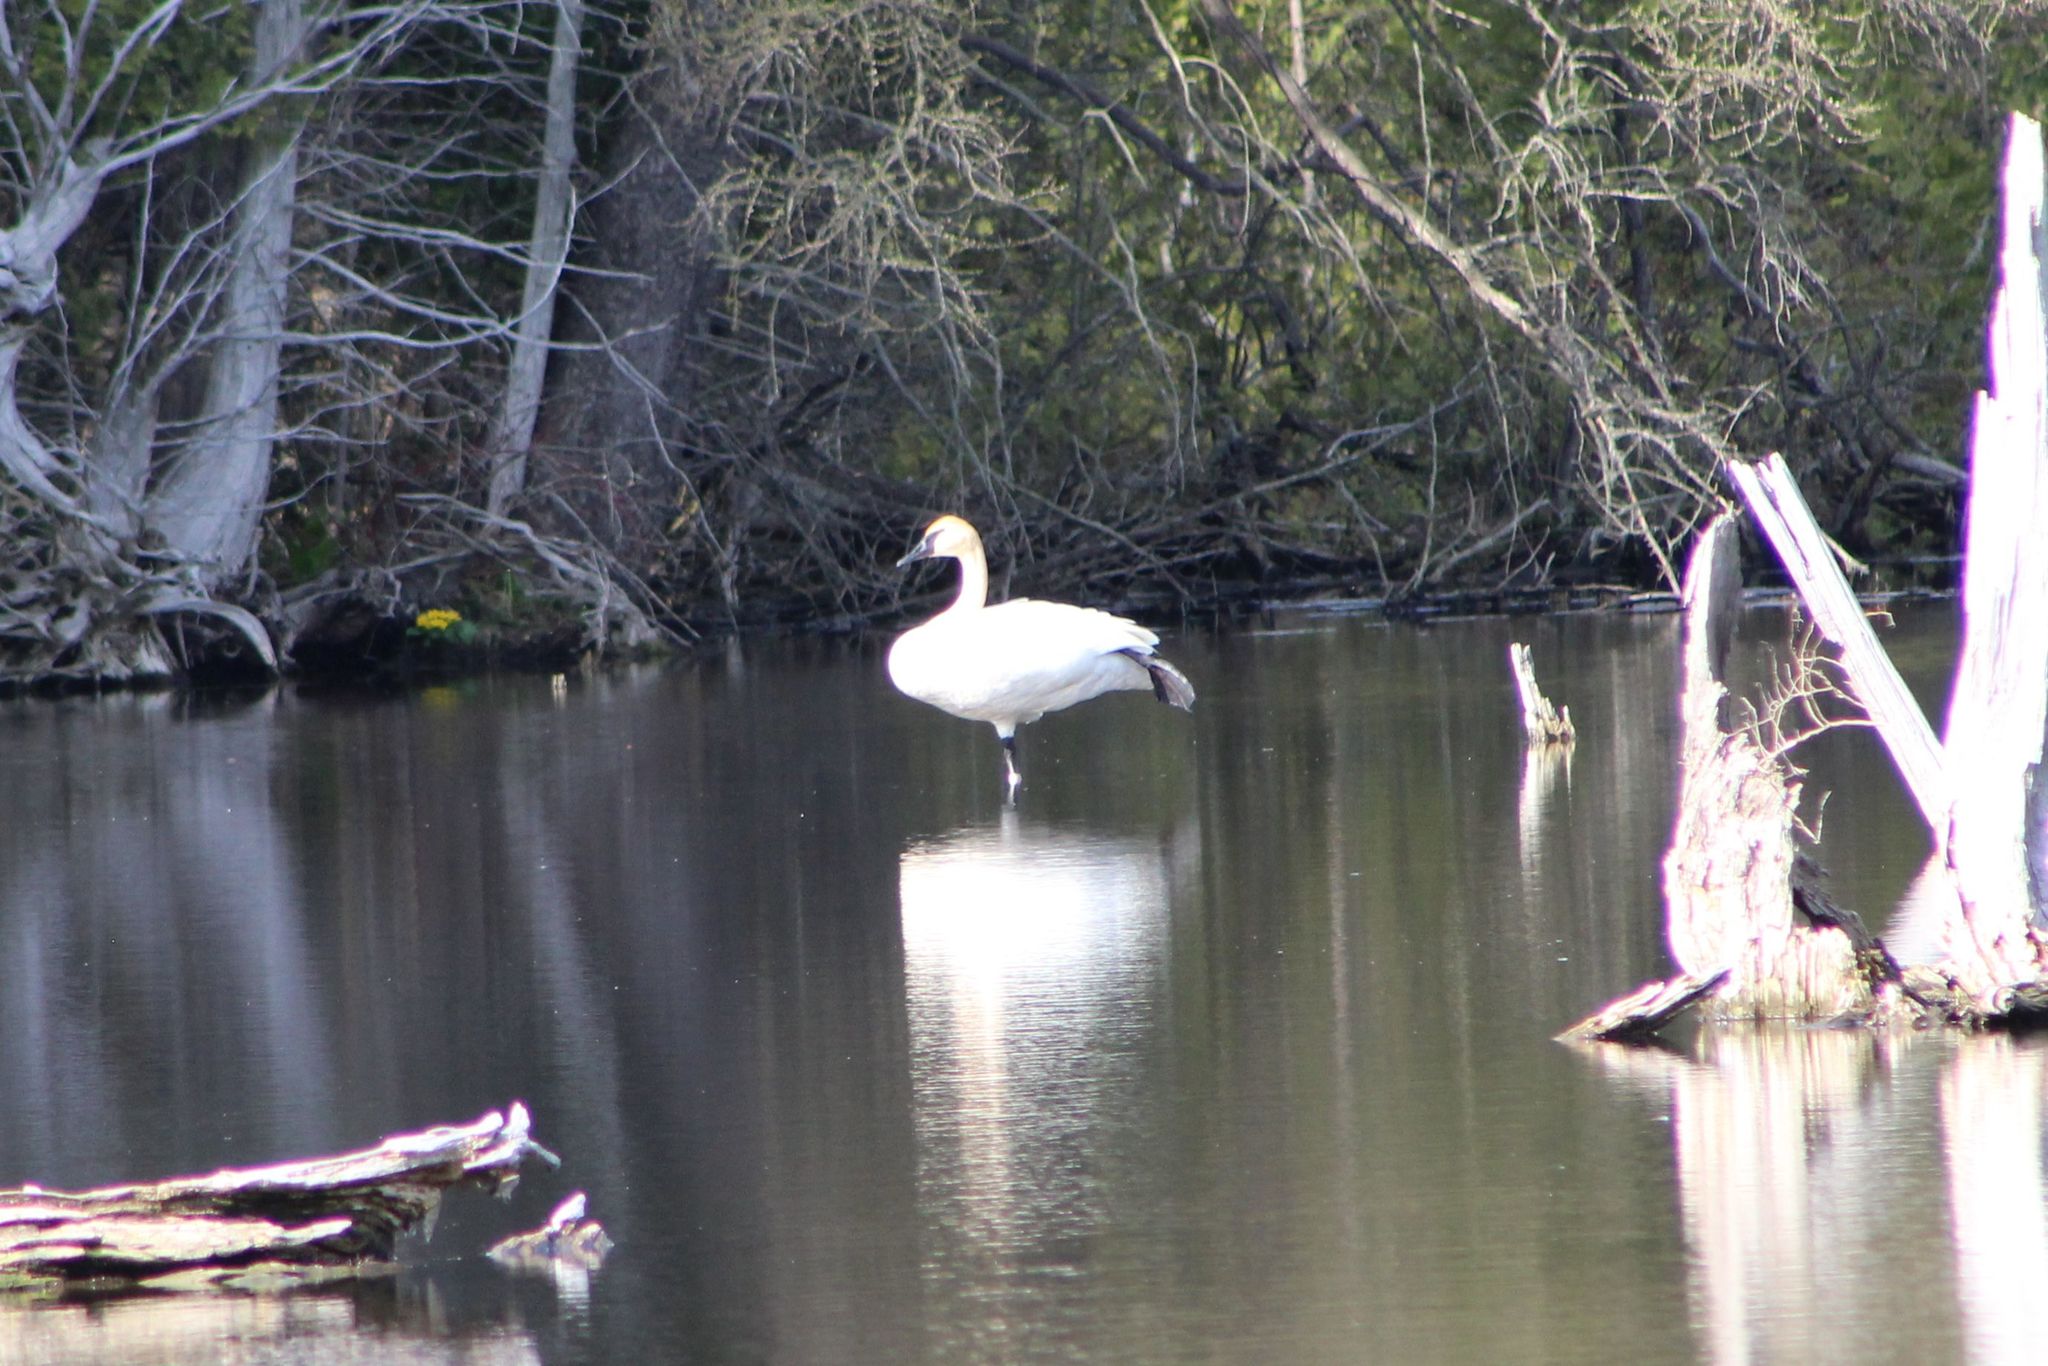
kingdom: Animalia
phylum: Chordata
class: Aves
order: Anseriformes
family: Anatidae
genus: Cygnus
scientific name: Cygnus buccinator
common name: Trumpeter swan
